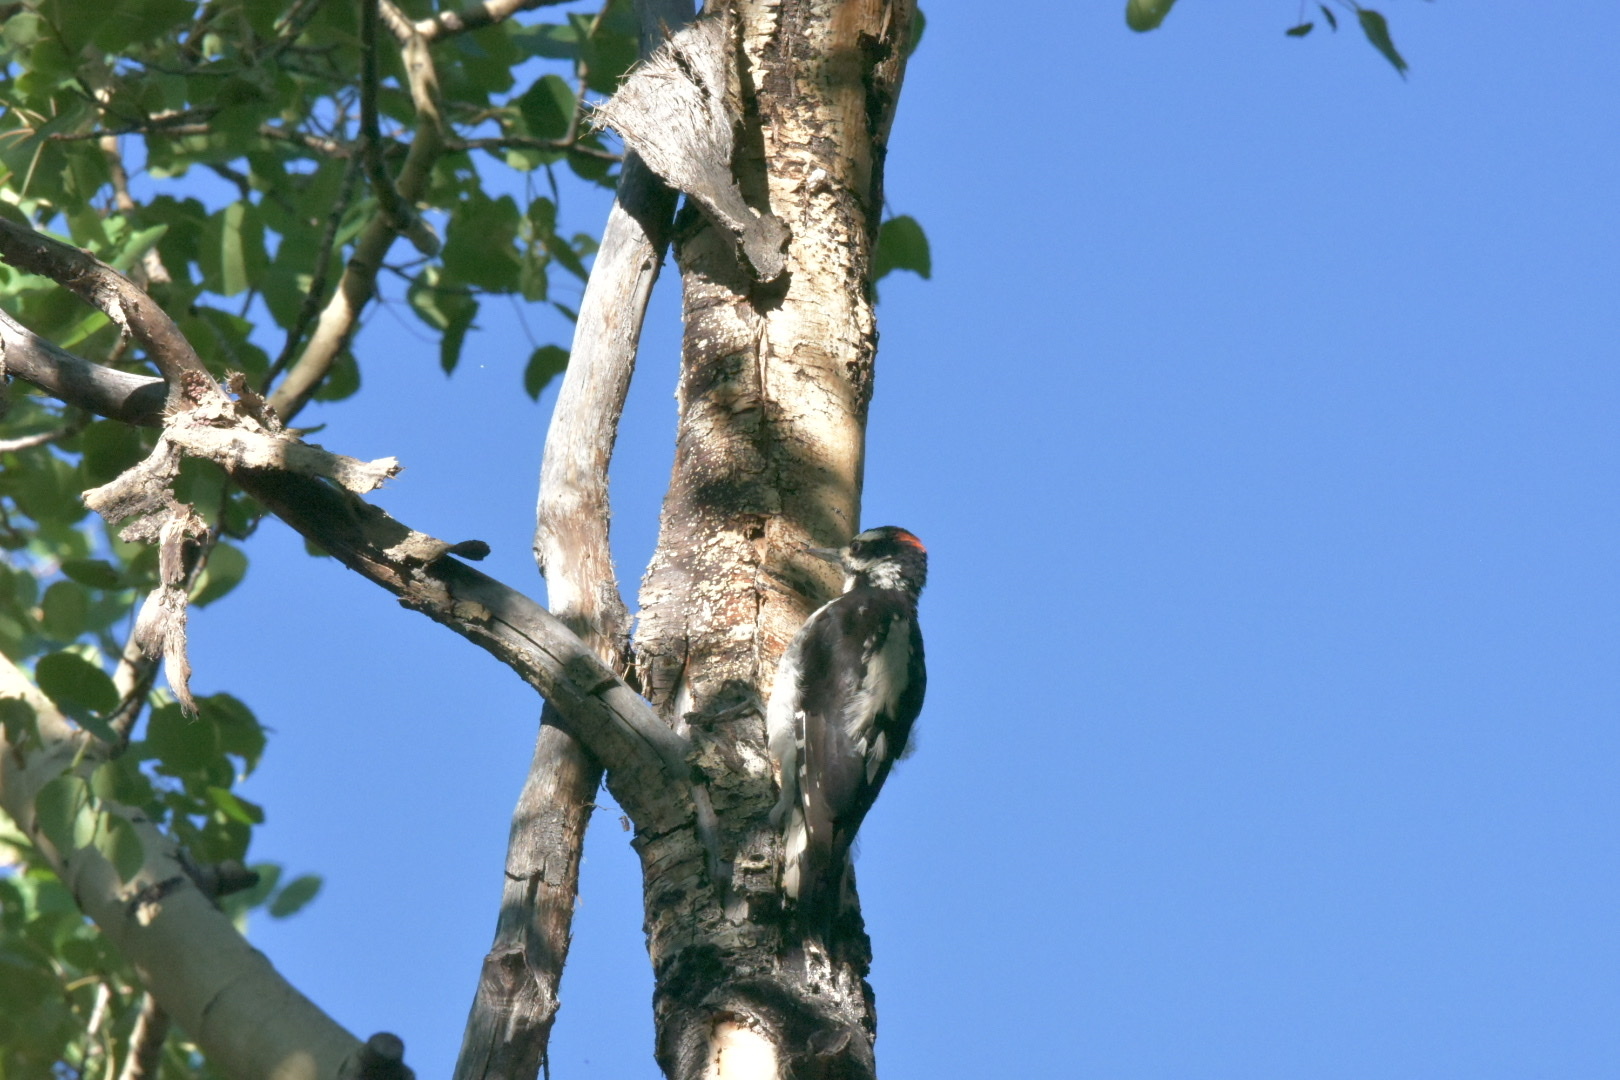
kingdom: Animalia
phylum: Chordata
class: Aves
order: Piciformes
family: Picidae
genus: Leuconotopicus
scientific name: Leuconotopicus villosus
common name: Hairy woodpecker
